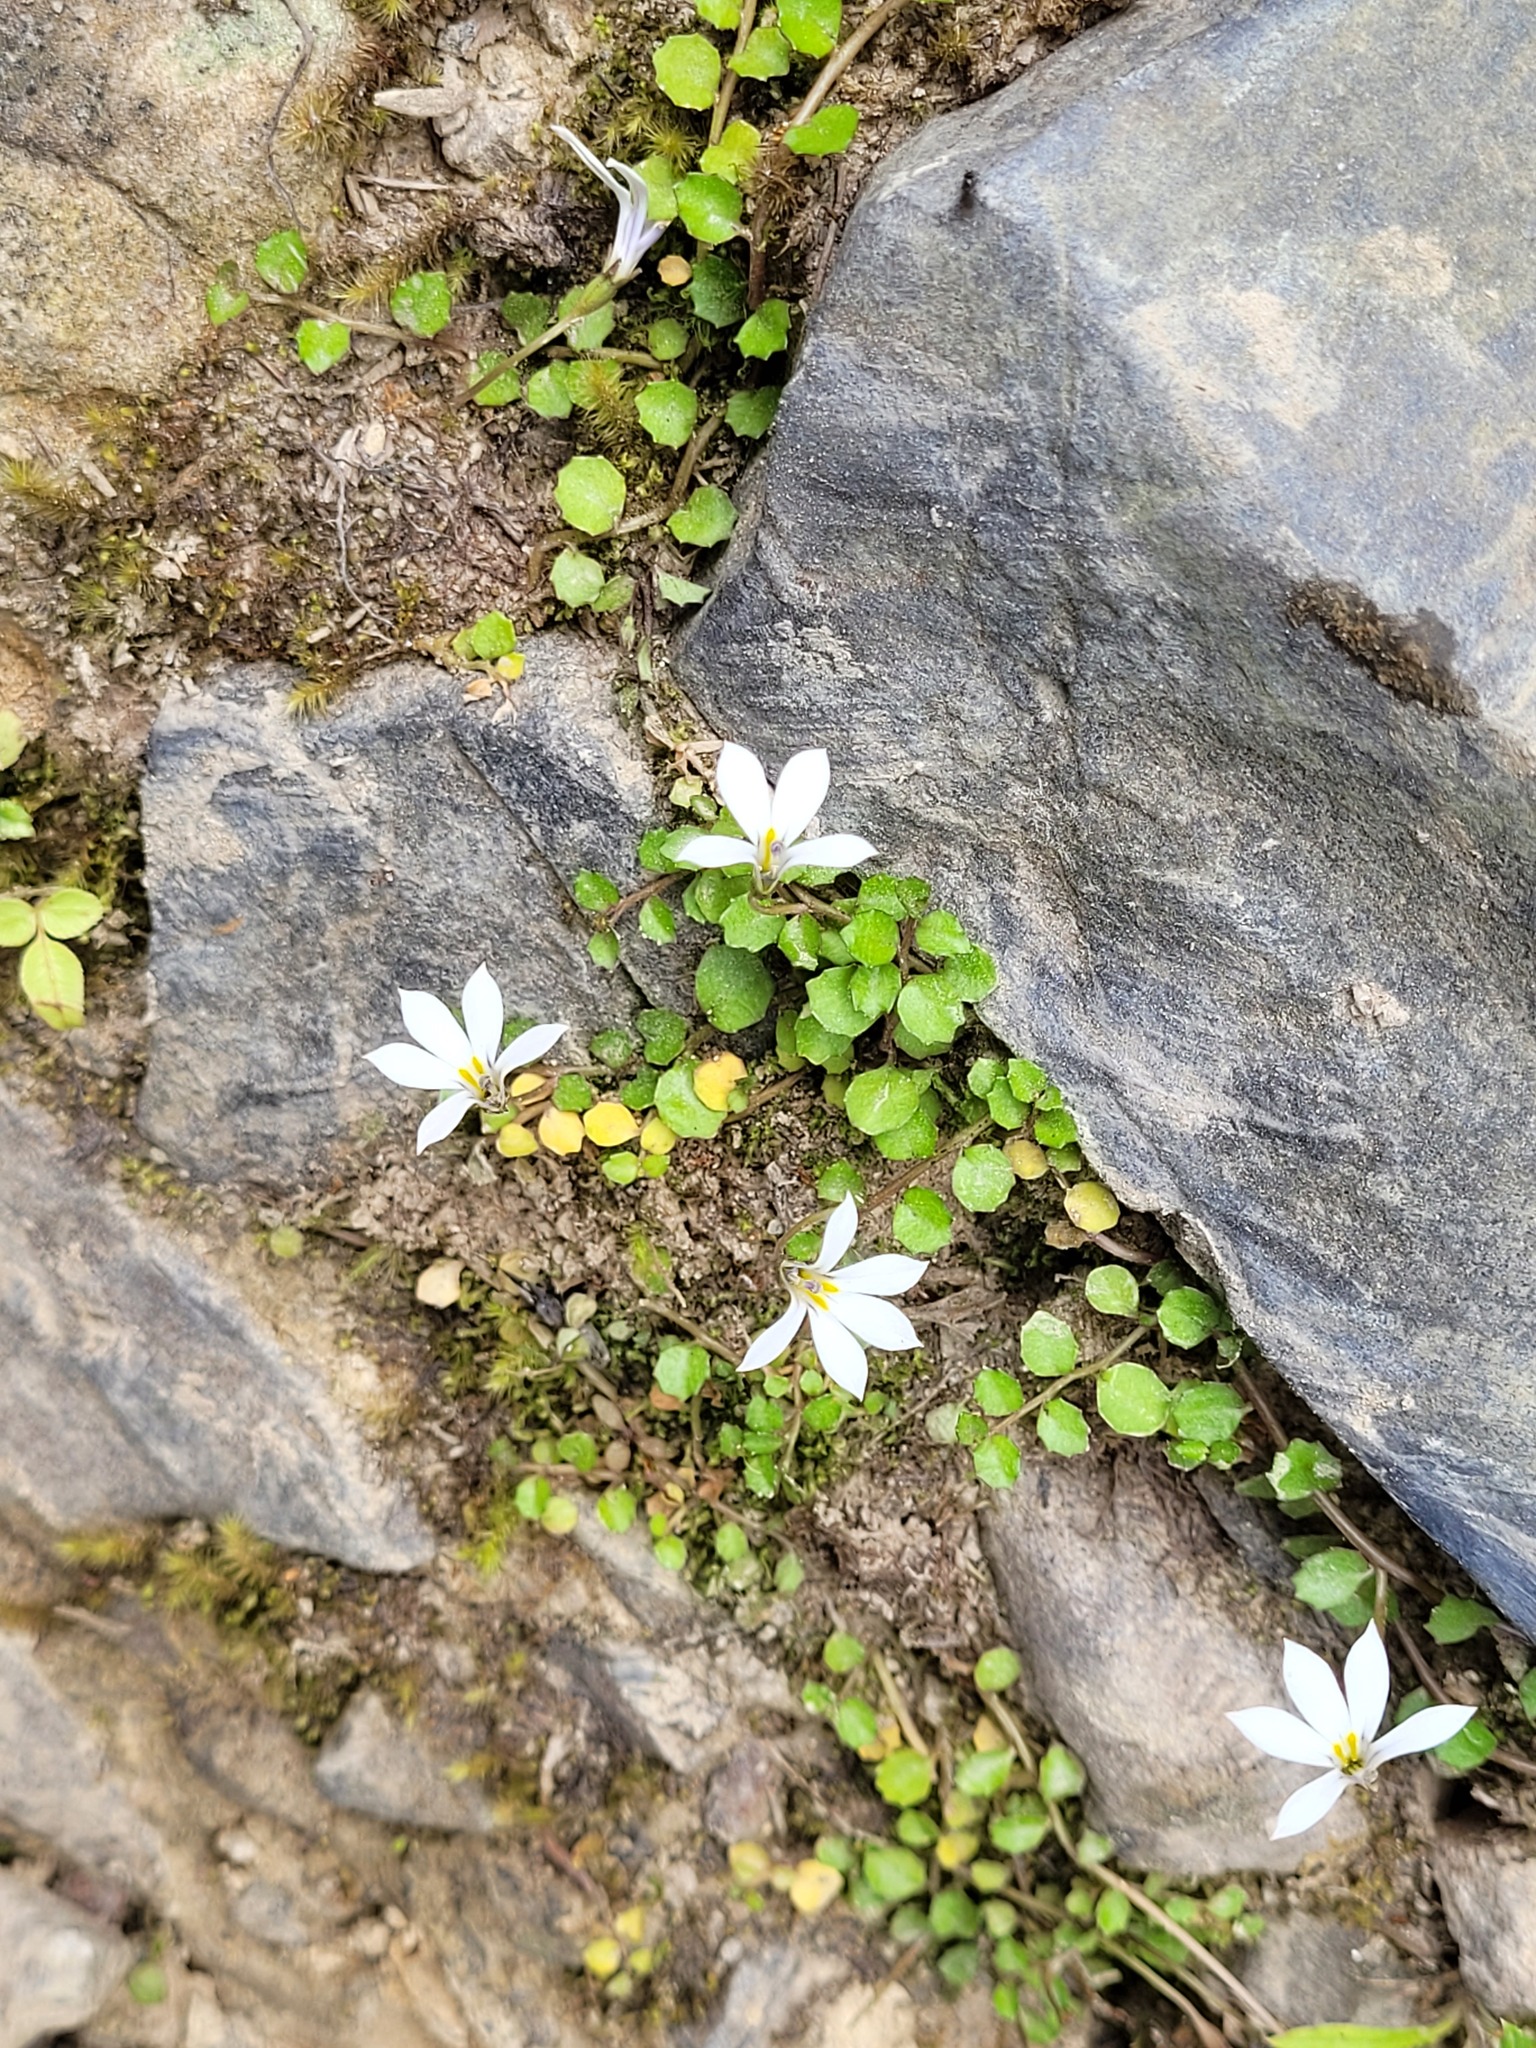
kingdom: Plantae
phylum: Tracheophyta
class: Magnoliopsida
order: Asterales
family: Campanulaceae
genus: Lobelia
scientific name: Lobelia angulata
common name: Lawn lobelia
